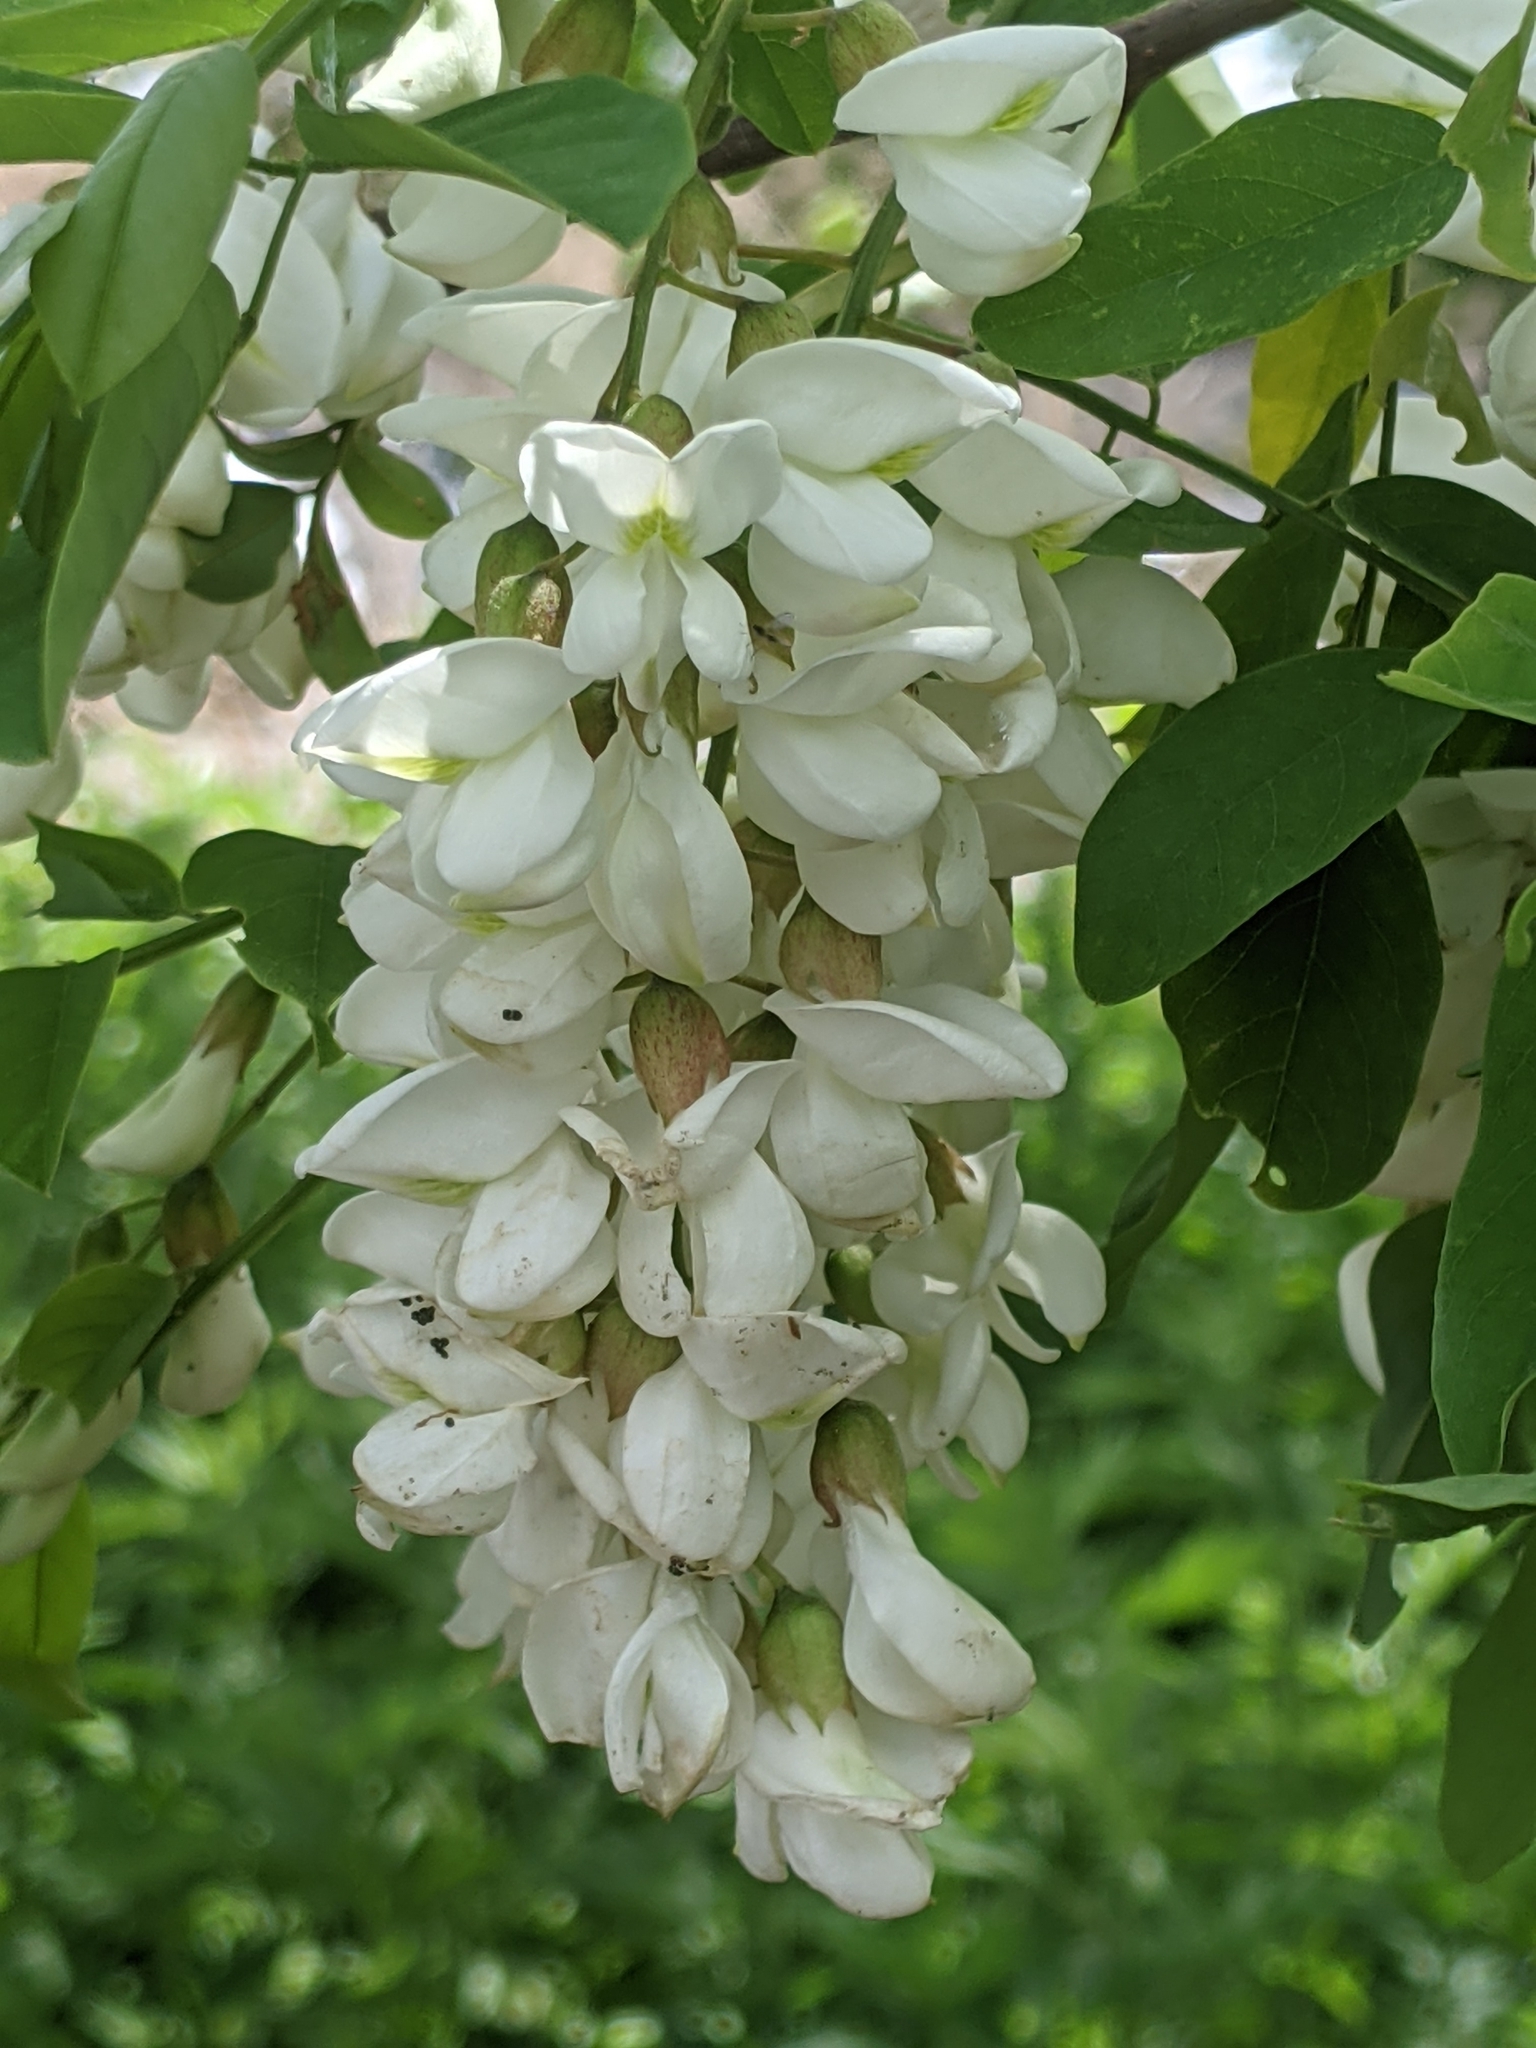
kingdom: Plantae
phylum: Tracheophyta
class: Magnoliopsida
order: Fabales
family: Fabaceae
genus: Robinia
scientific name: Robinia pseudoacacia
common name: Black locust
